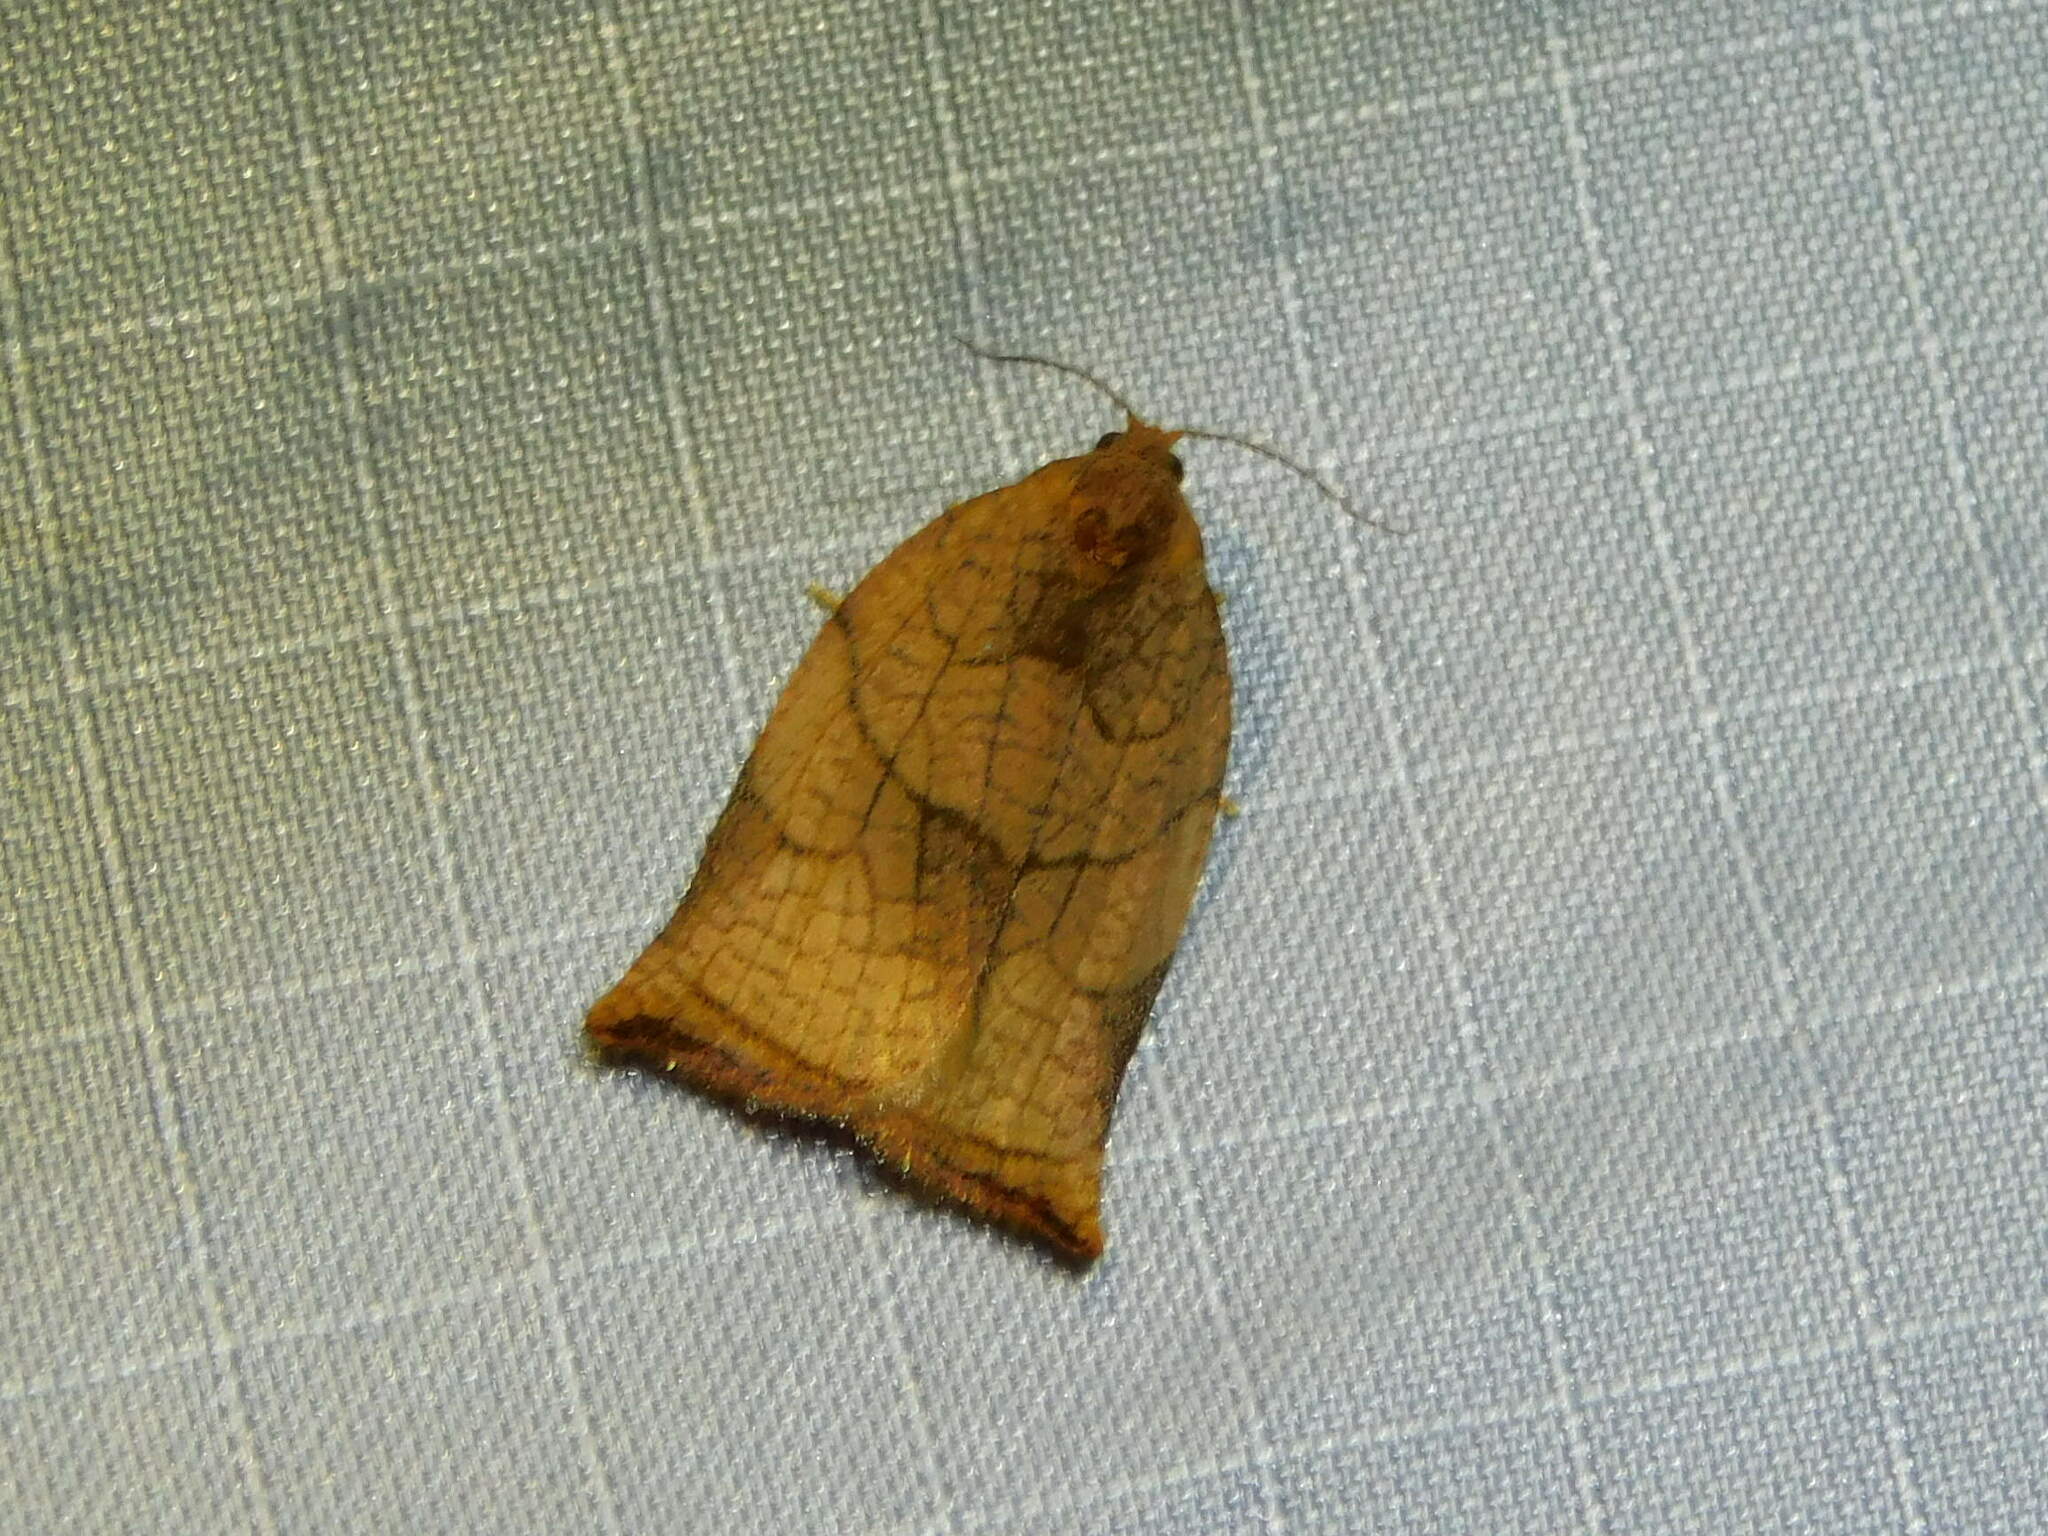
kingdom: Animalia
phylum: Arthropoda
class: Insecta
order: Lepidoptera
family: Tortricidae
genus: Archips
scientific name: Archips podana
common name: Large fruit-tree tortrix
